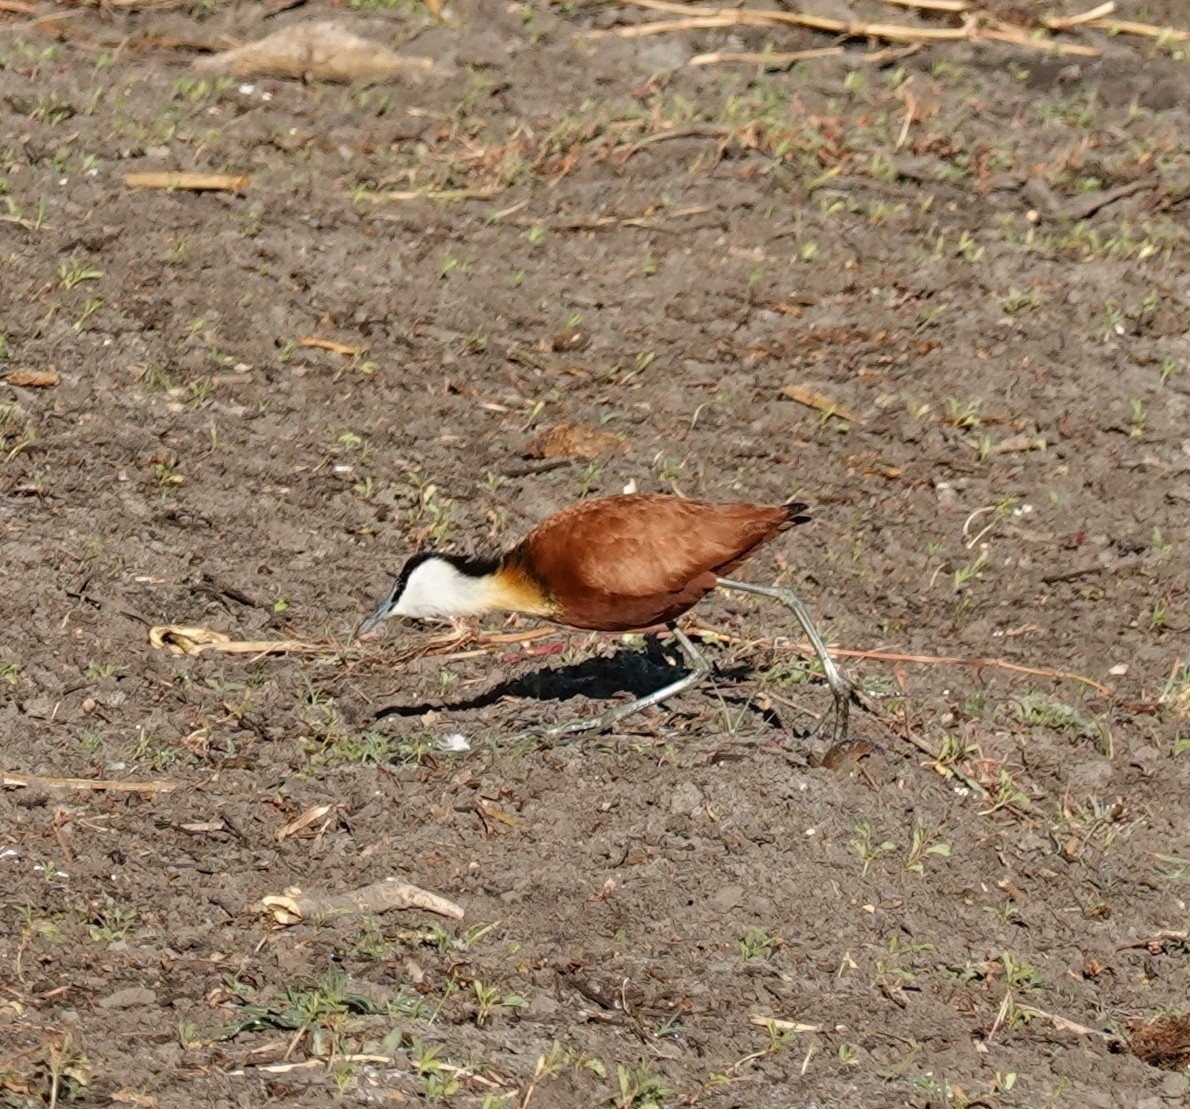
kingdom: Animalia
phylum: Chordata
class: Aves
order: Charadriiformes
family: Jacanidae
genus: Actophilornis
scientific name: Actophilornis africanus
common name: African jacana
